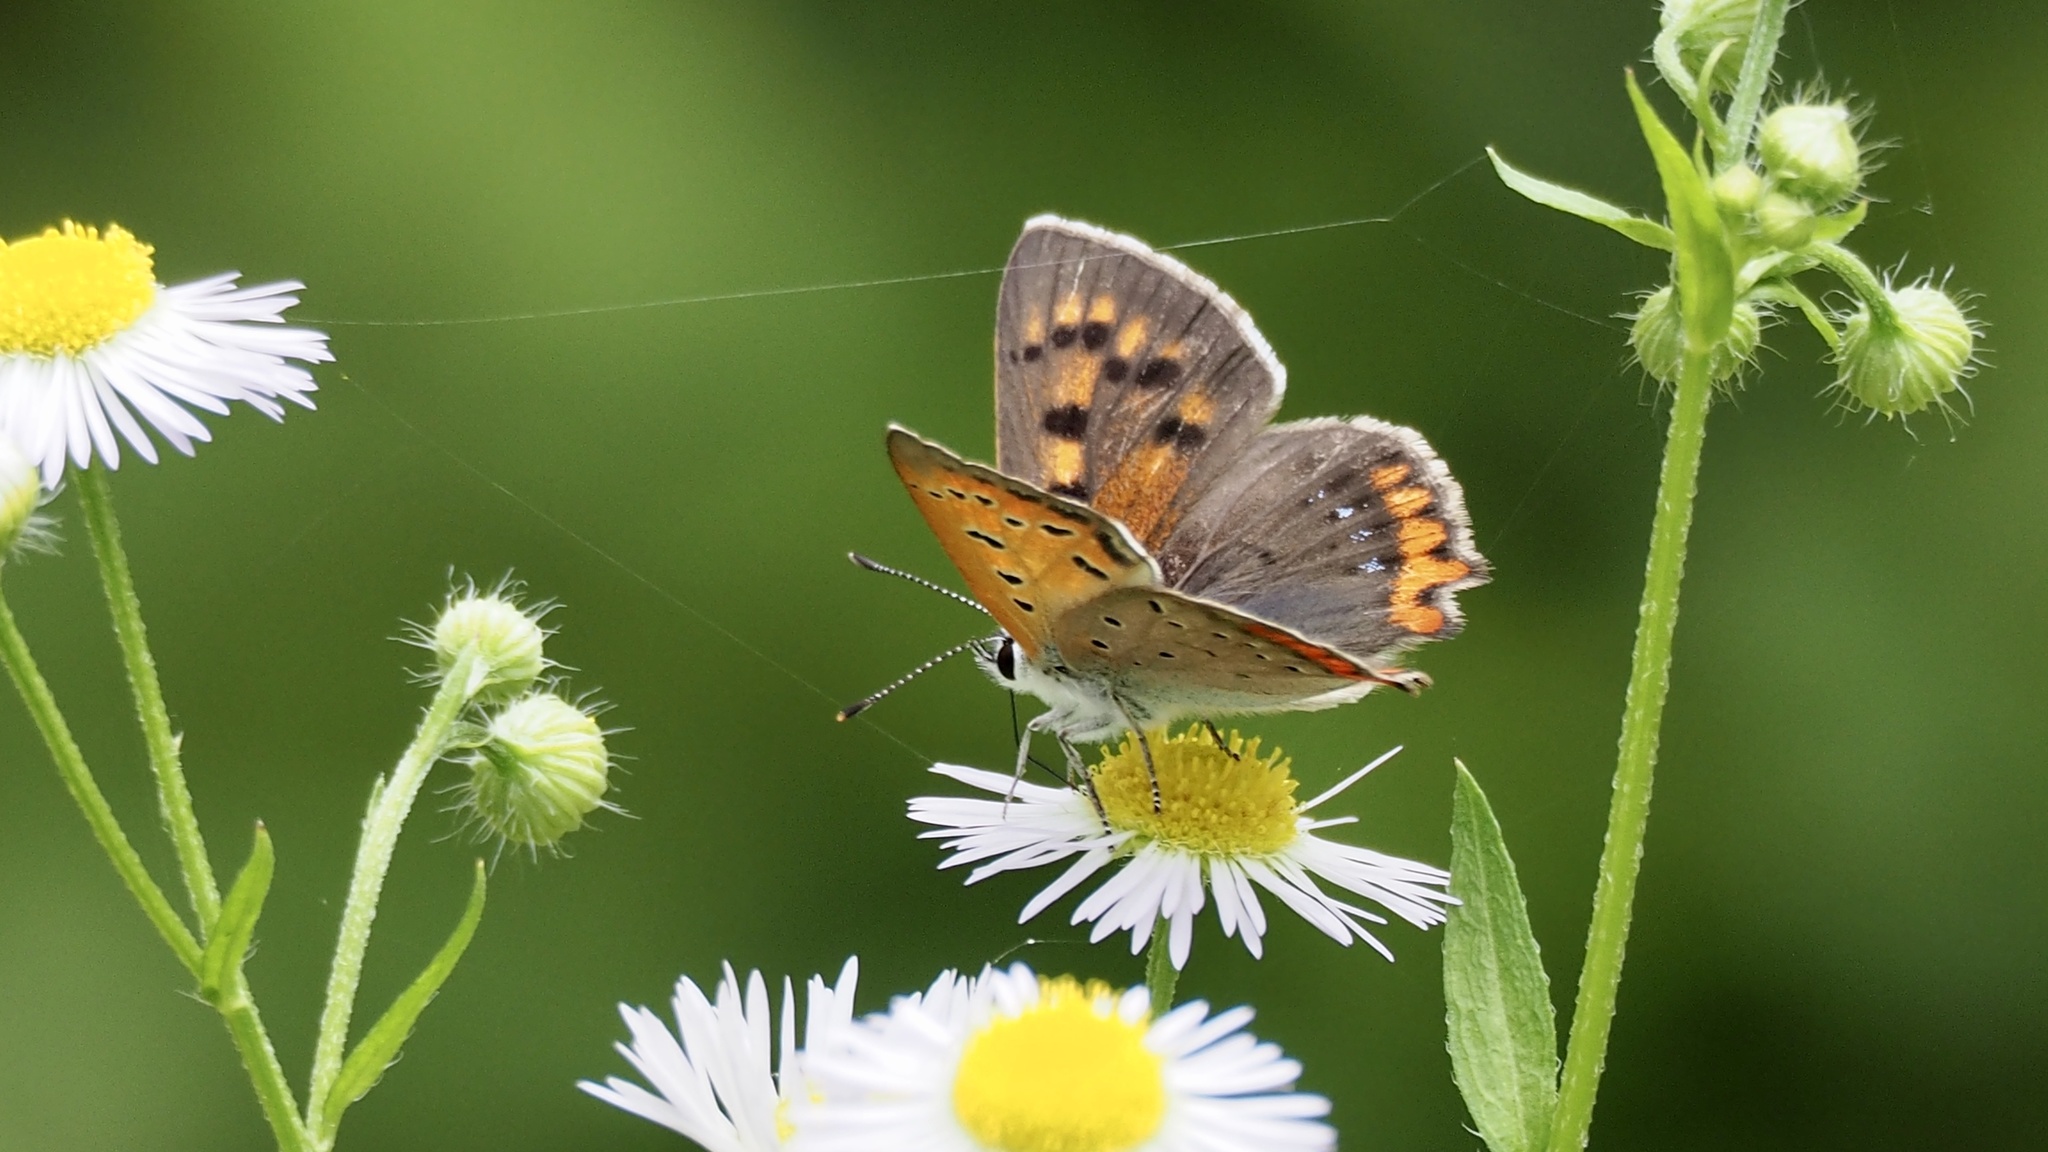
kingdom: Animalia
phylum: Arthropoda
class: Insecta
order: Lepidoptera
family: Lycaenidae
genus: Lycaena
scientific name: Lycaena phlaeas
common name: Small copper
